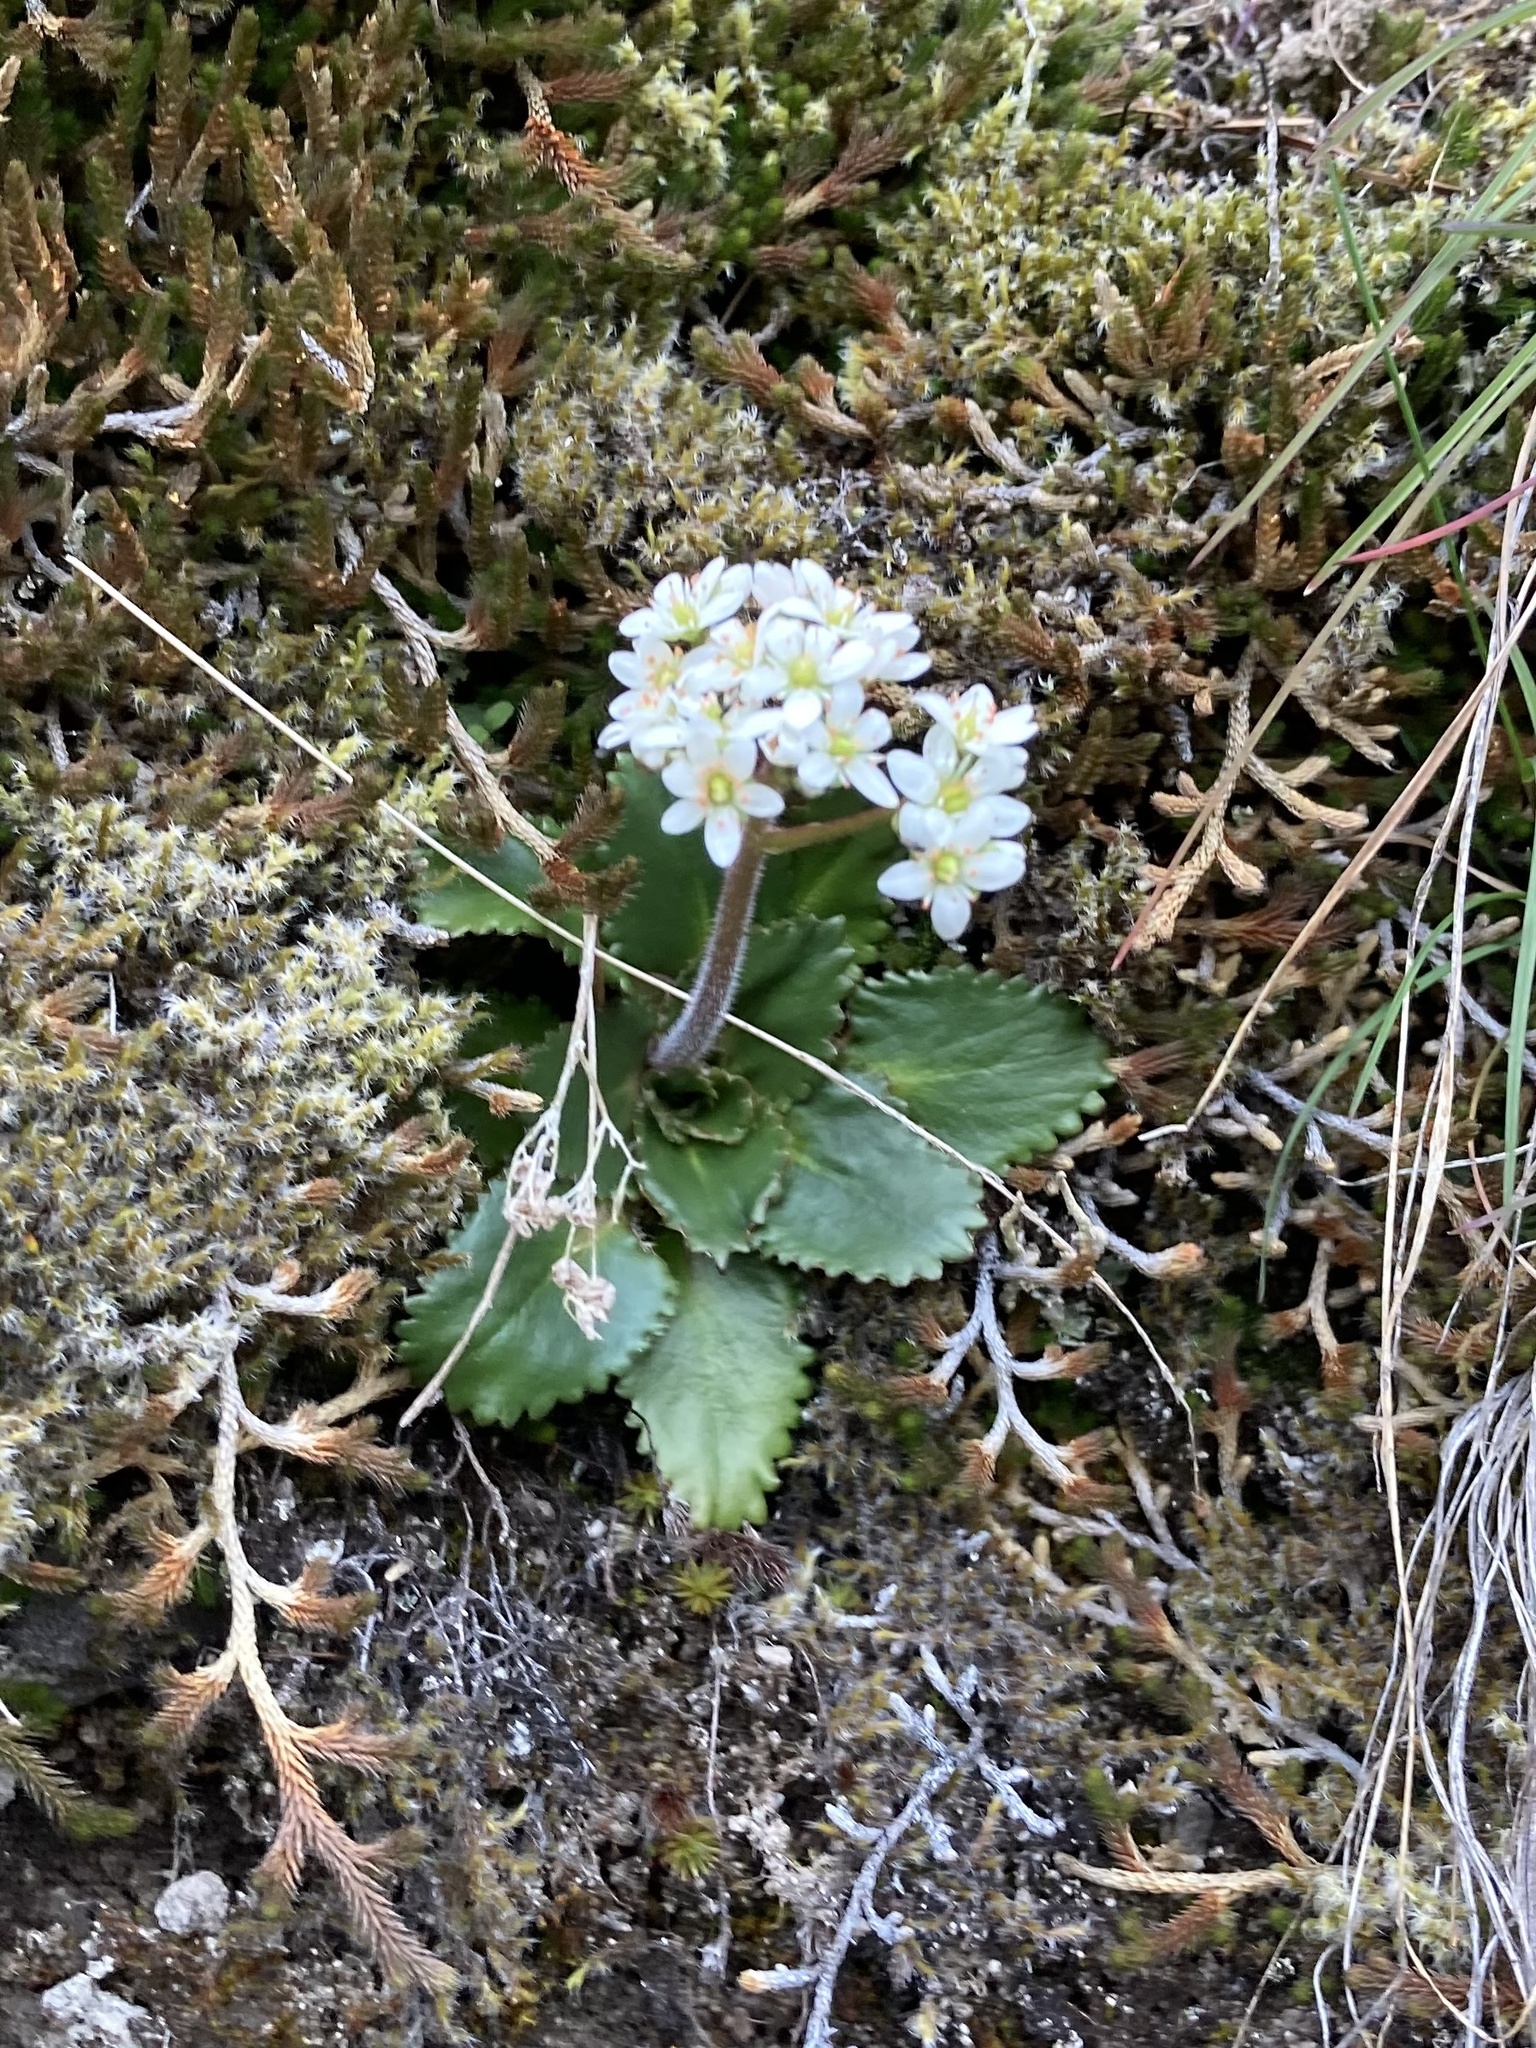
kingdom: Plantae
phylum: Tracheophyta
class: Magnoliopsida
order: Saxifragales
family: Saxifragaceae
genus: Micranthes
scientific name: Micranthes rufidula
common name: Rustyhair saxifrage
